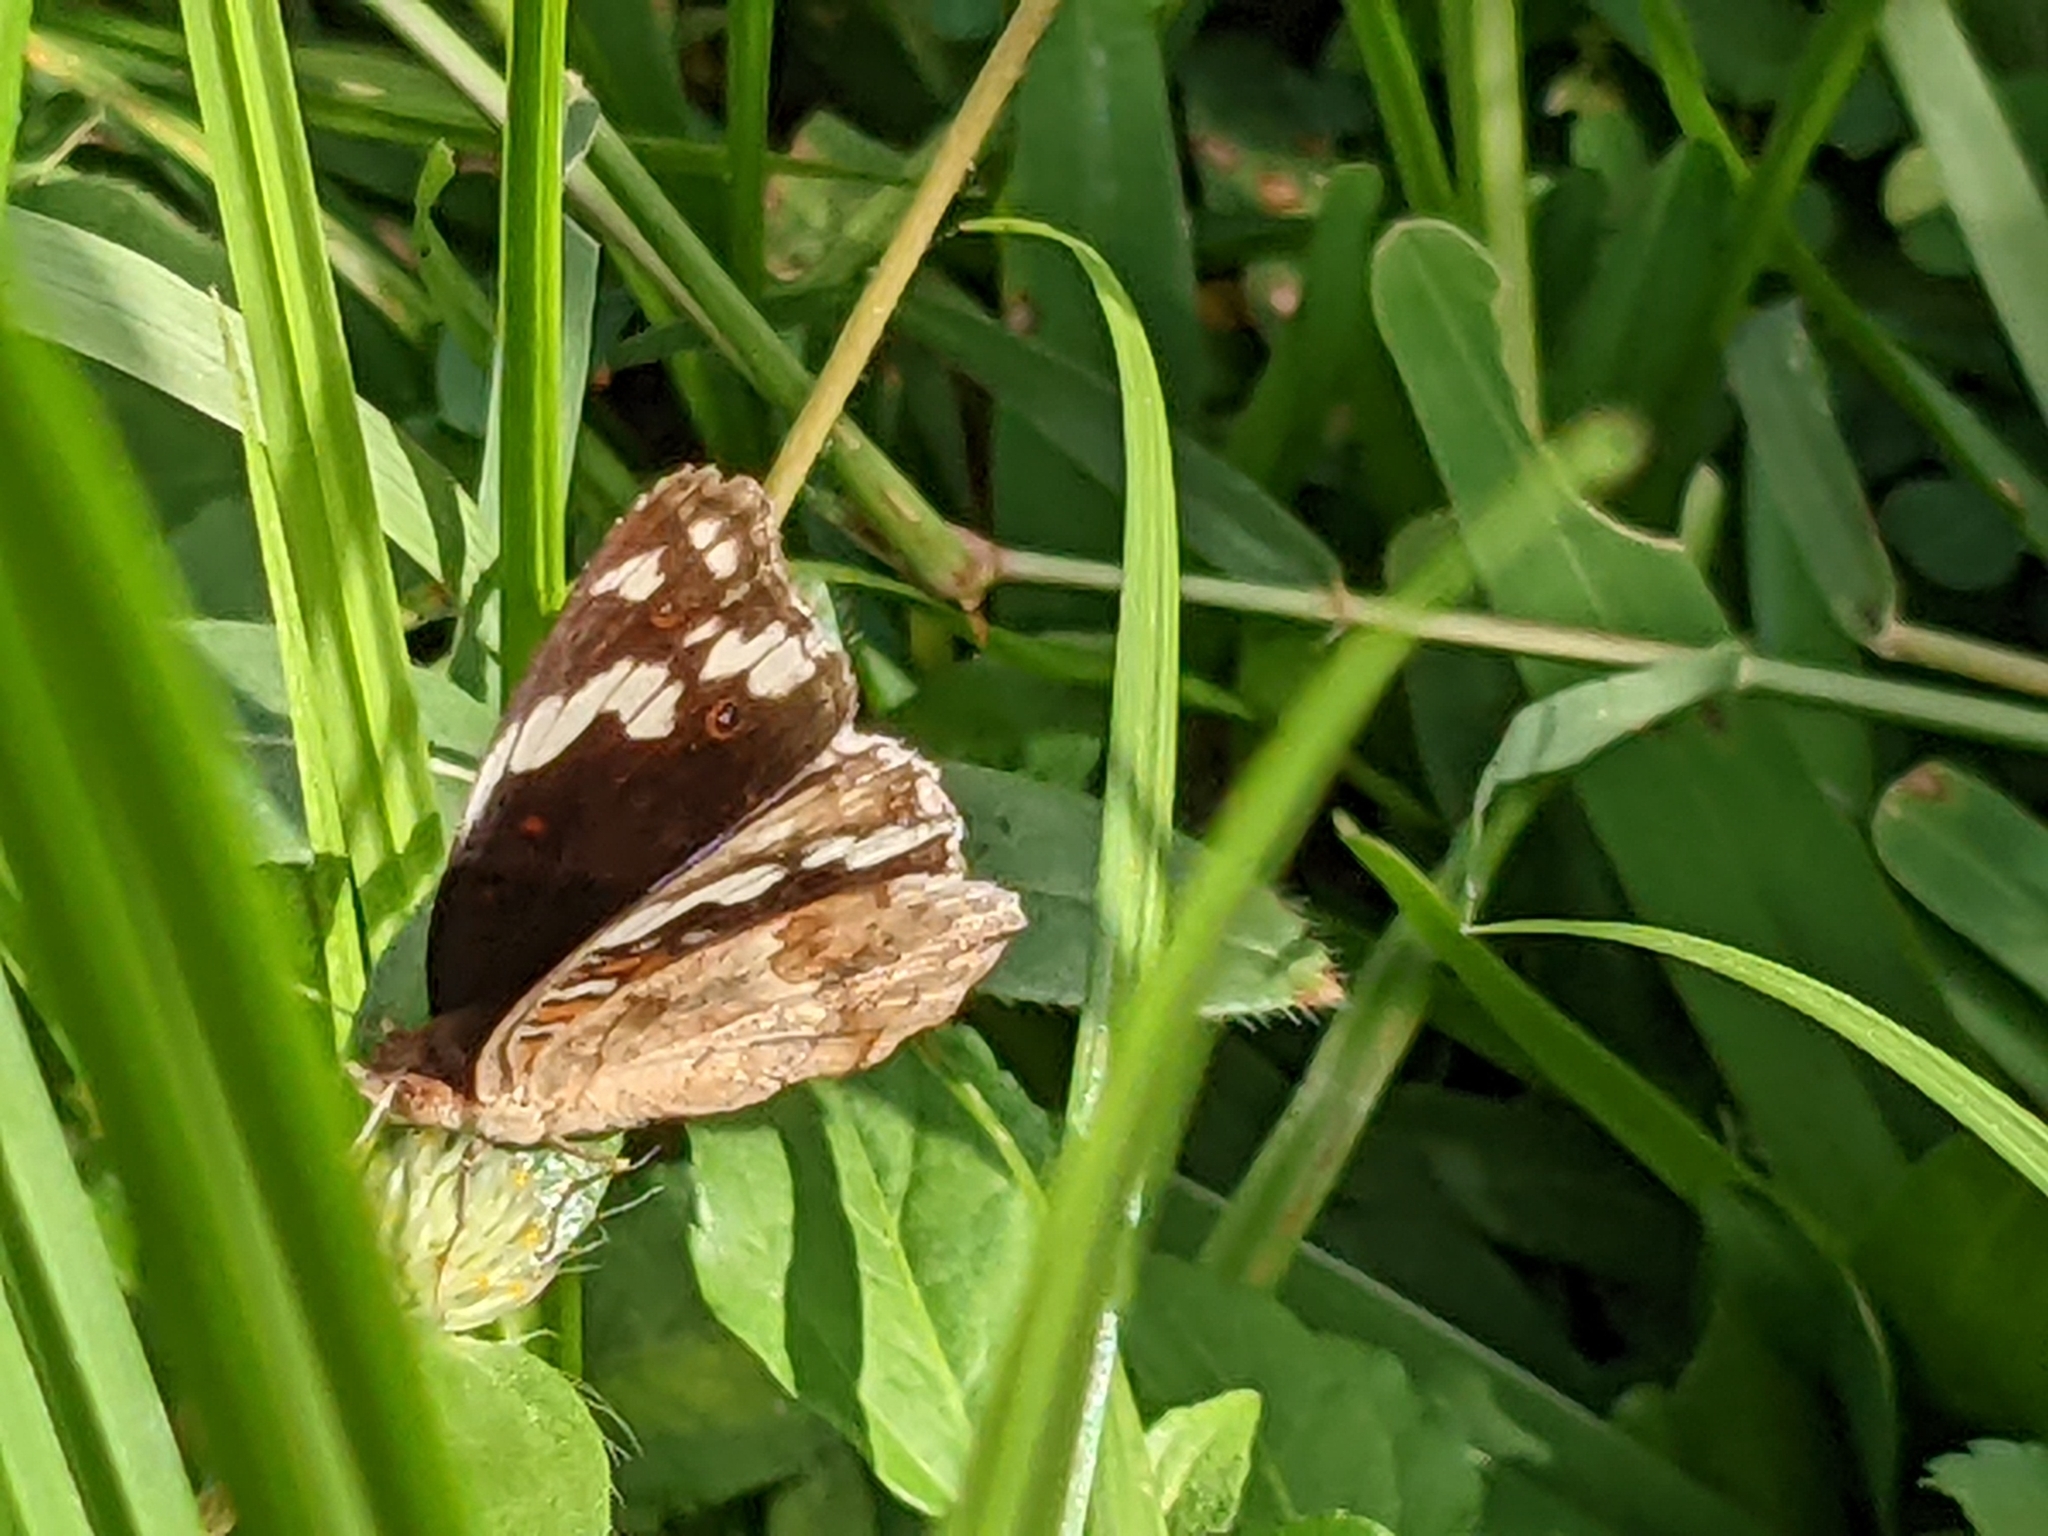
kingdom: Animalia
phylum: Arthropoda
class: Insecta
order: Lepidoptera
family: Nymphalidae
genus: Junonia
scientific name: Junonia oenone
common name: Dark blue pansy
